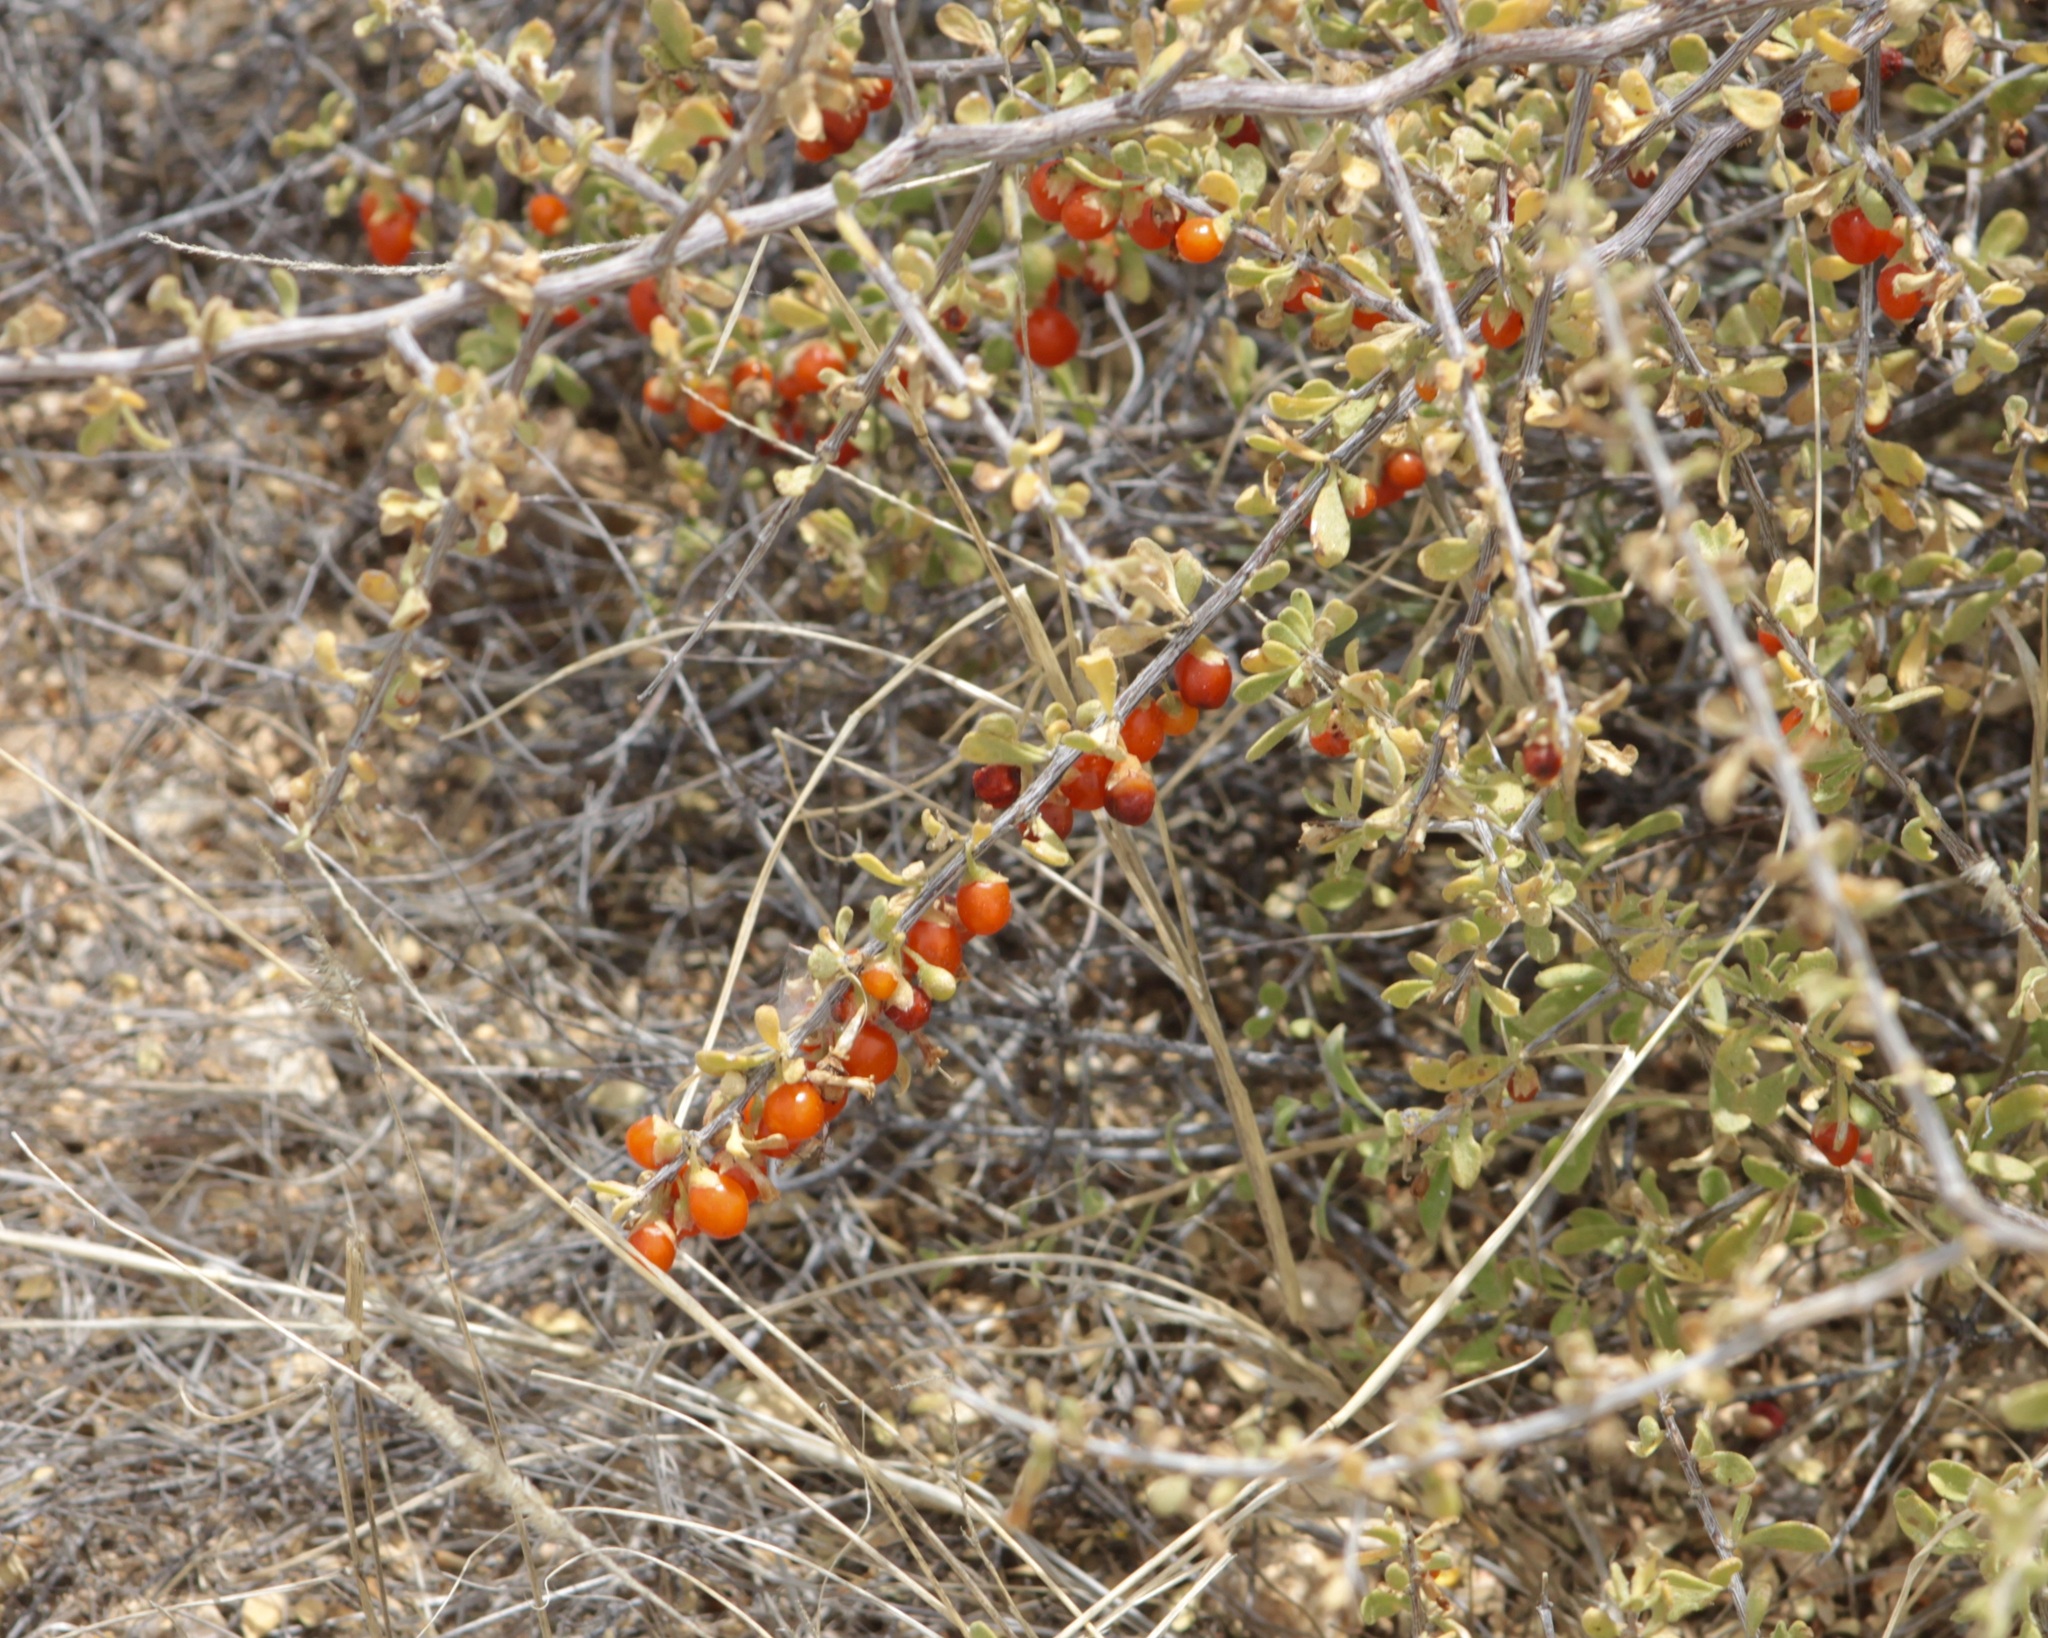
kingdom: Plantae
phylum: Tracheophyta
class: Magnoliopsida
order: Solanales
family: Solanaceae
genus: Lycium
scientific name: Lycium andersonii
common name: Water-jacket
